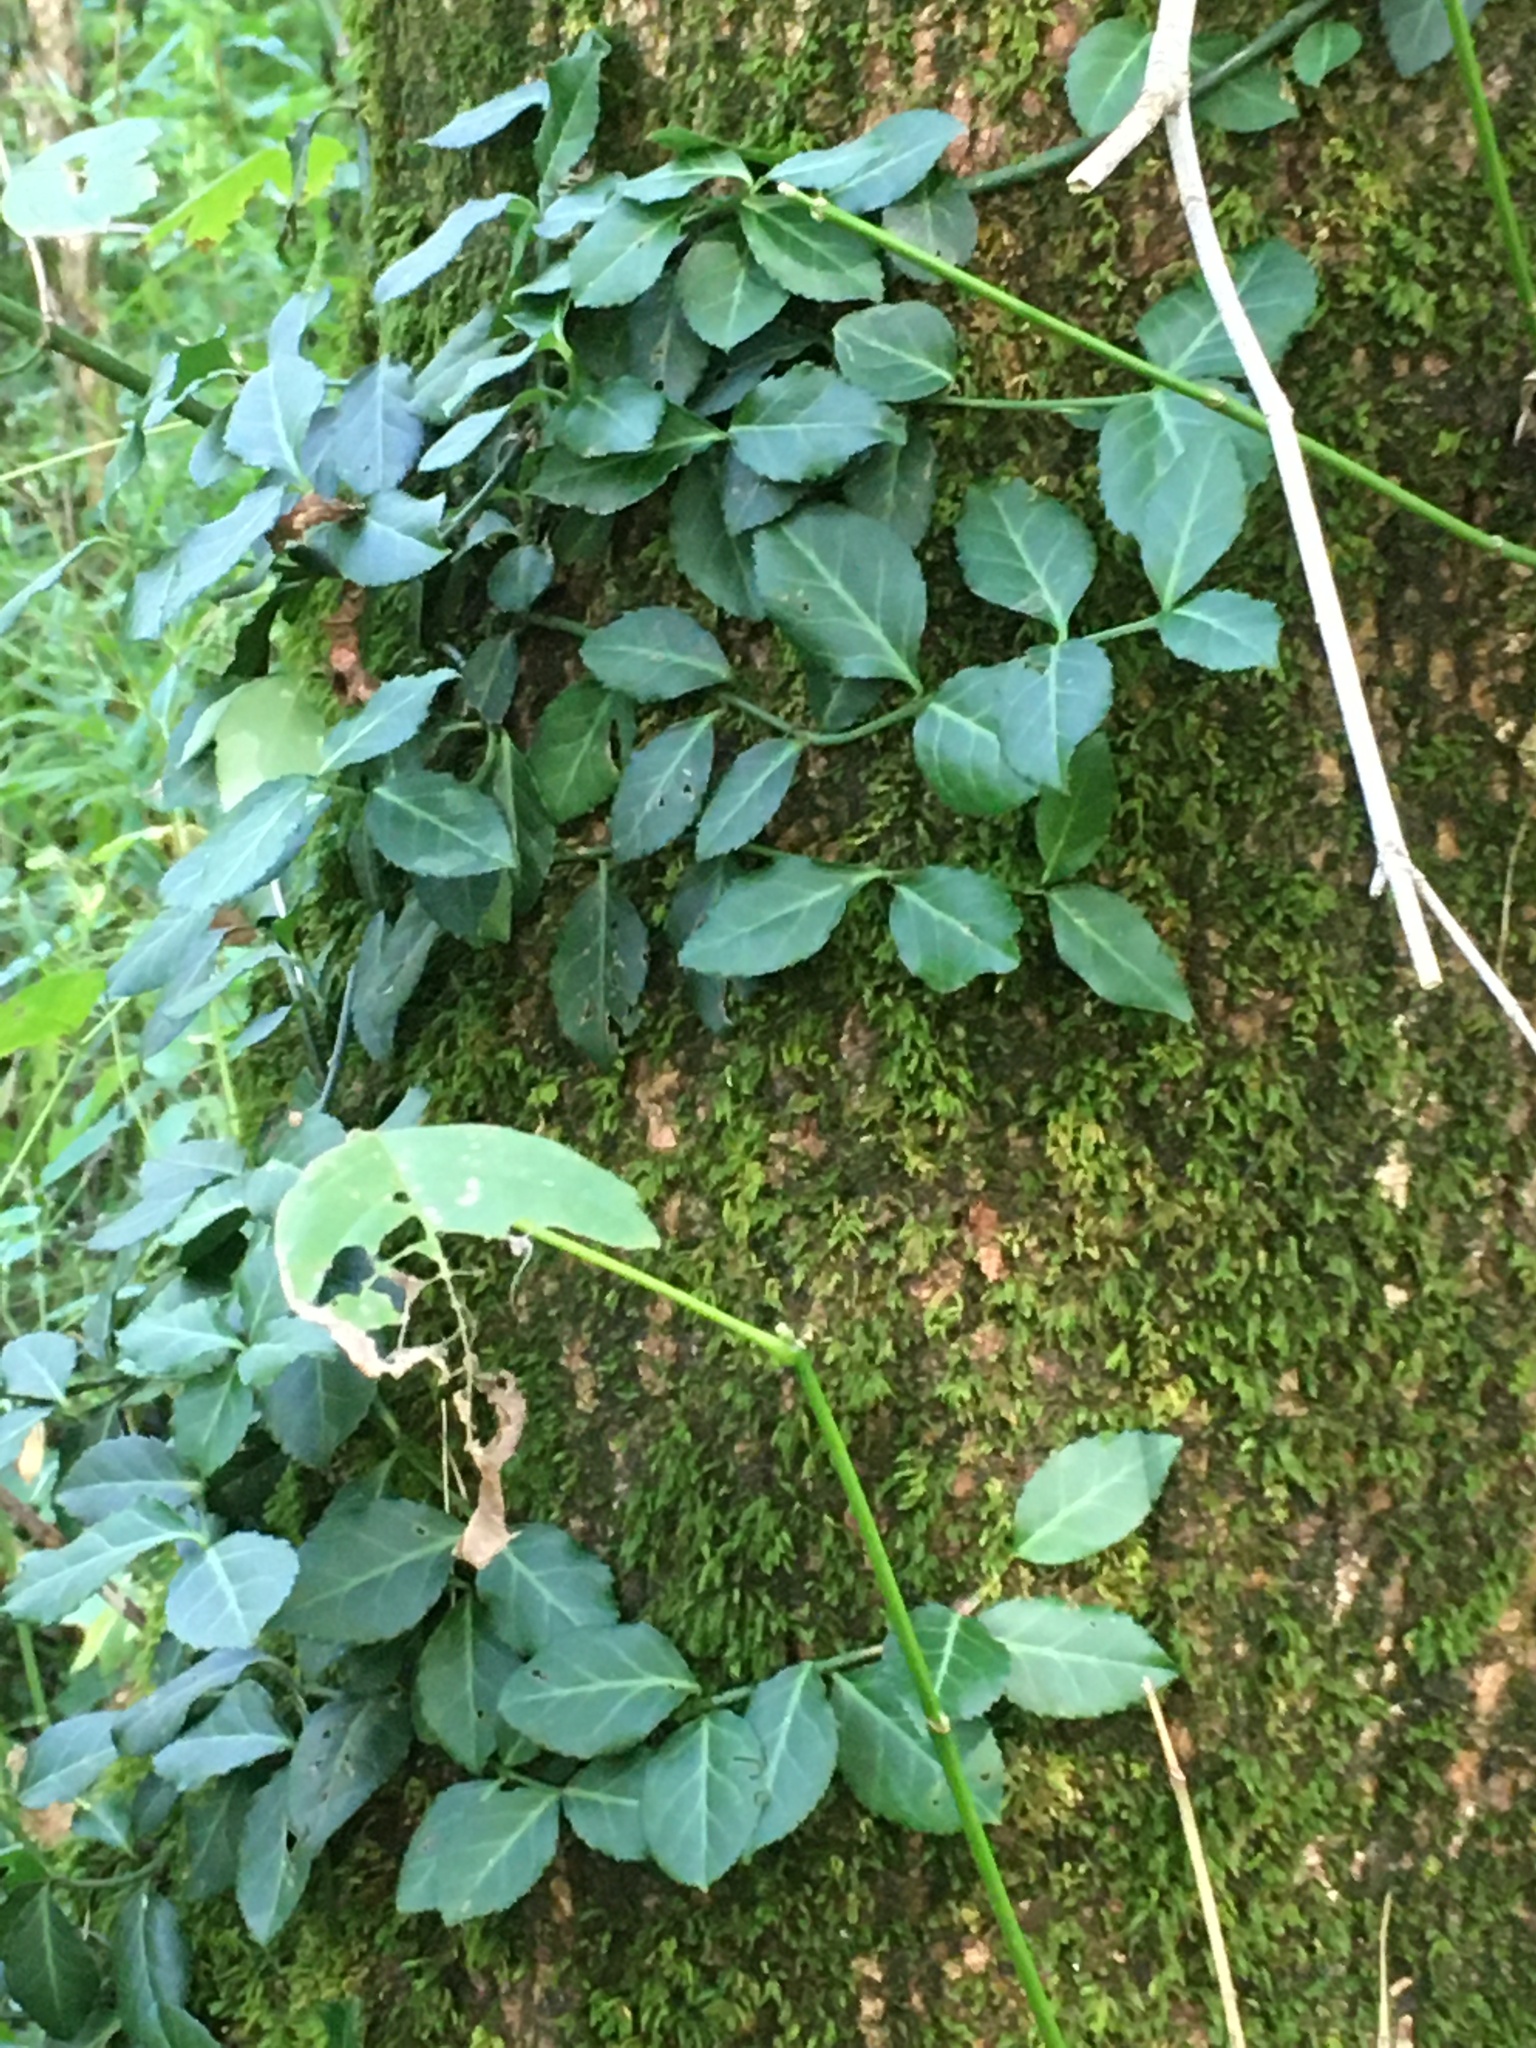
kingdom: Plantae
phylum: Tracheophyta
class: Magnoliopsida
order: Celastrales
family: Celastraceae
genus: Euonymus
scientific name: Euonymus fortunei
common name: Climbing euonymus
